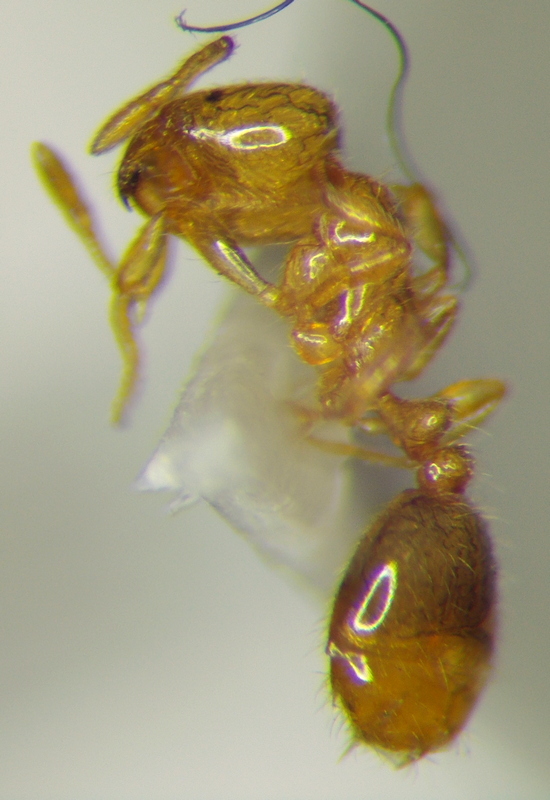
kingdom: Animalia
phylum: Arthropoda
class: Insecta
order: Hymenoptera
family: Formicidae
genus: Solenopsis
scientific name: Solenopsis fugax
